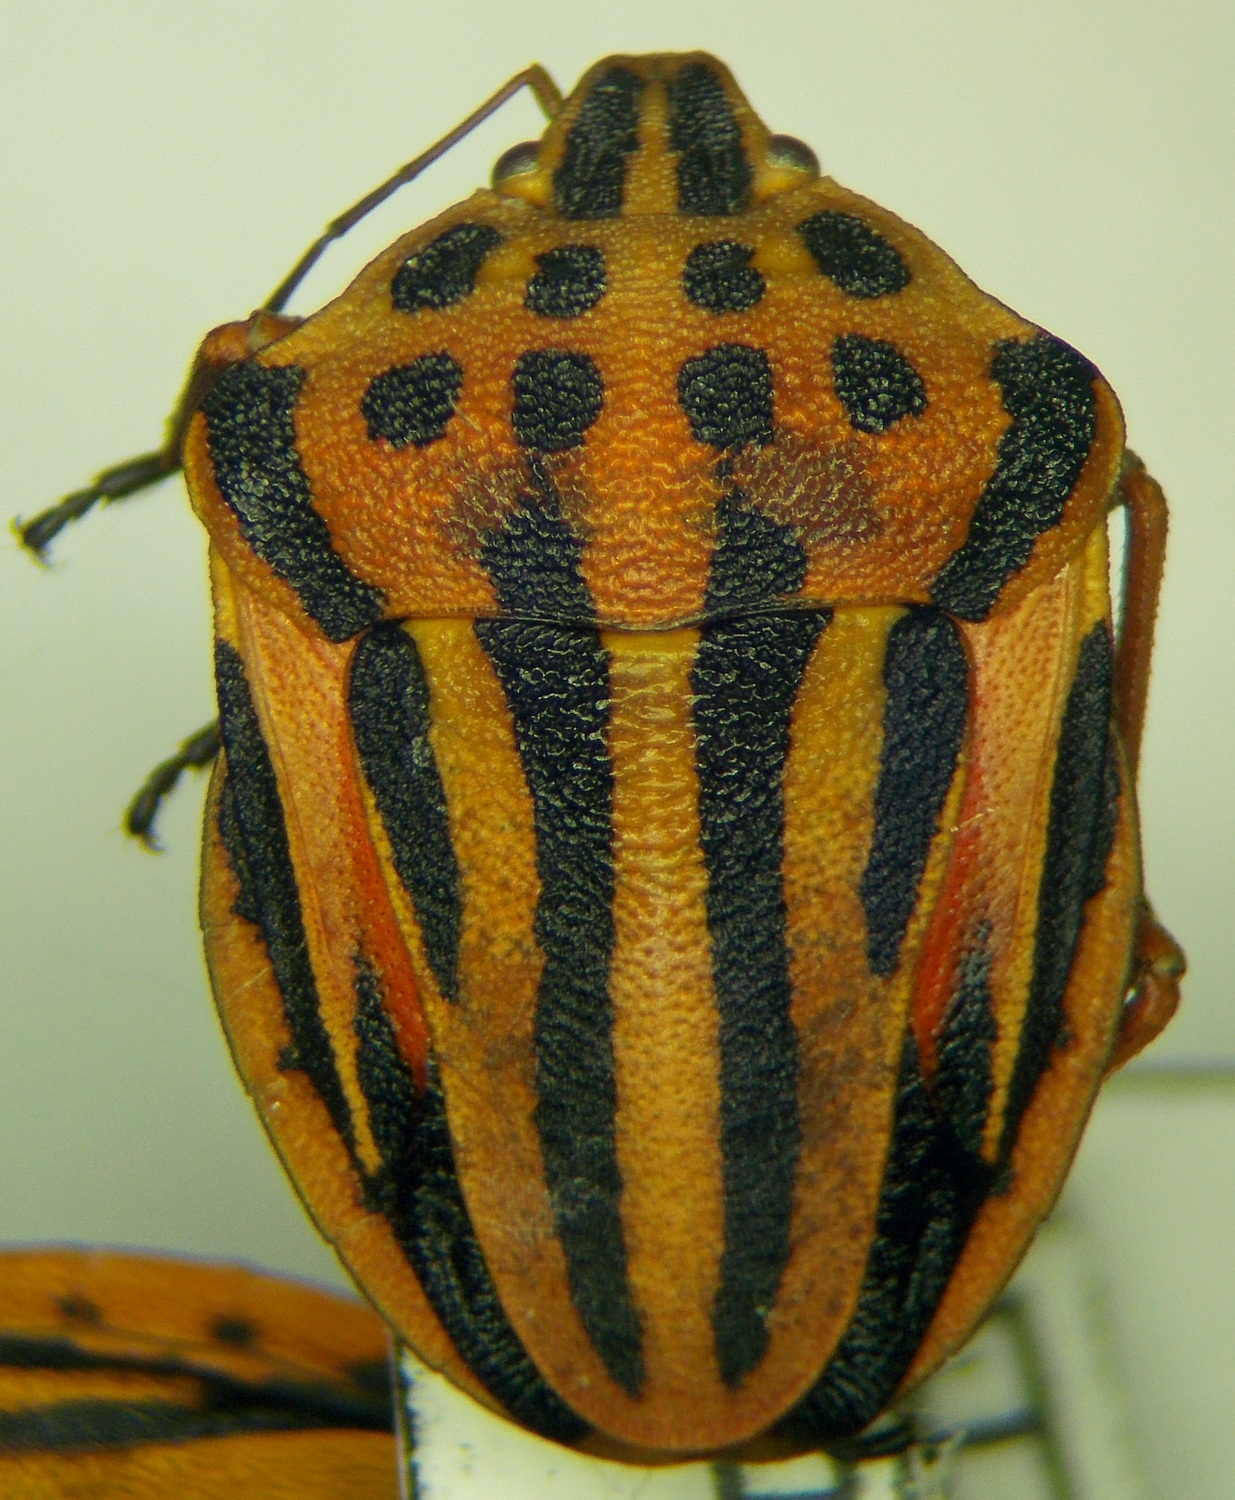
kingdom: Animalia
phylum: Arthropoda
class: Insecta
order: Hemiptera
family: Pentatomidae
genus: Graphosoma
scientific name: Graphosoma semipunctatum
